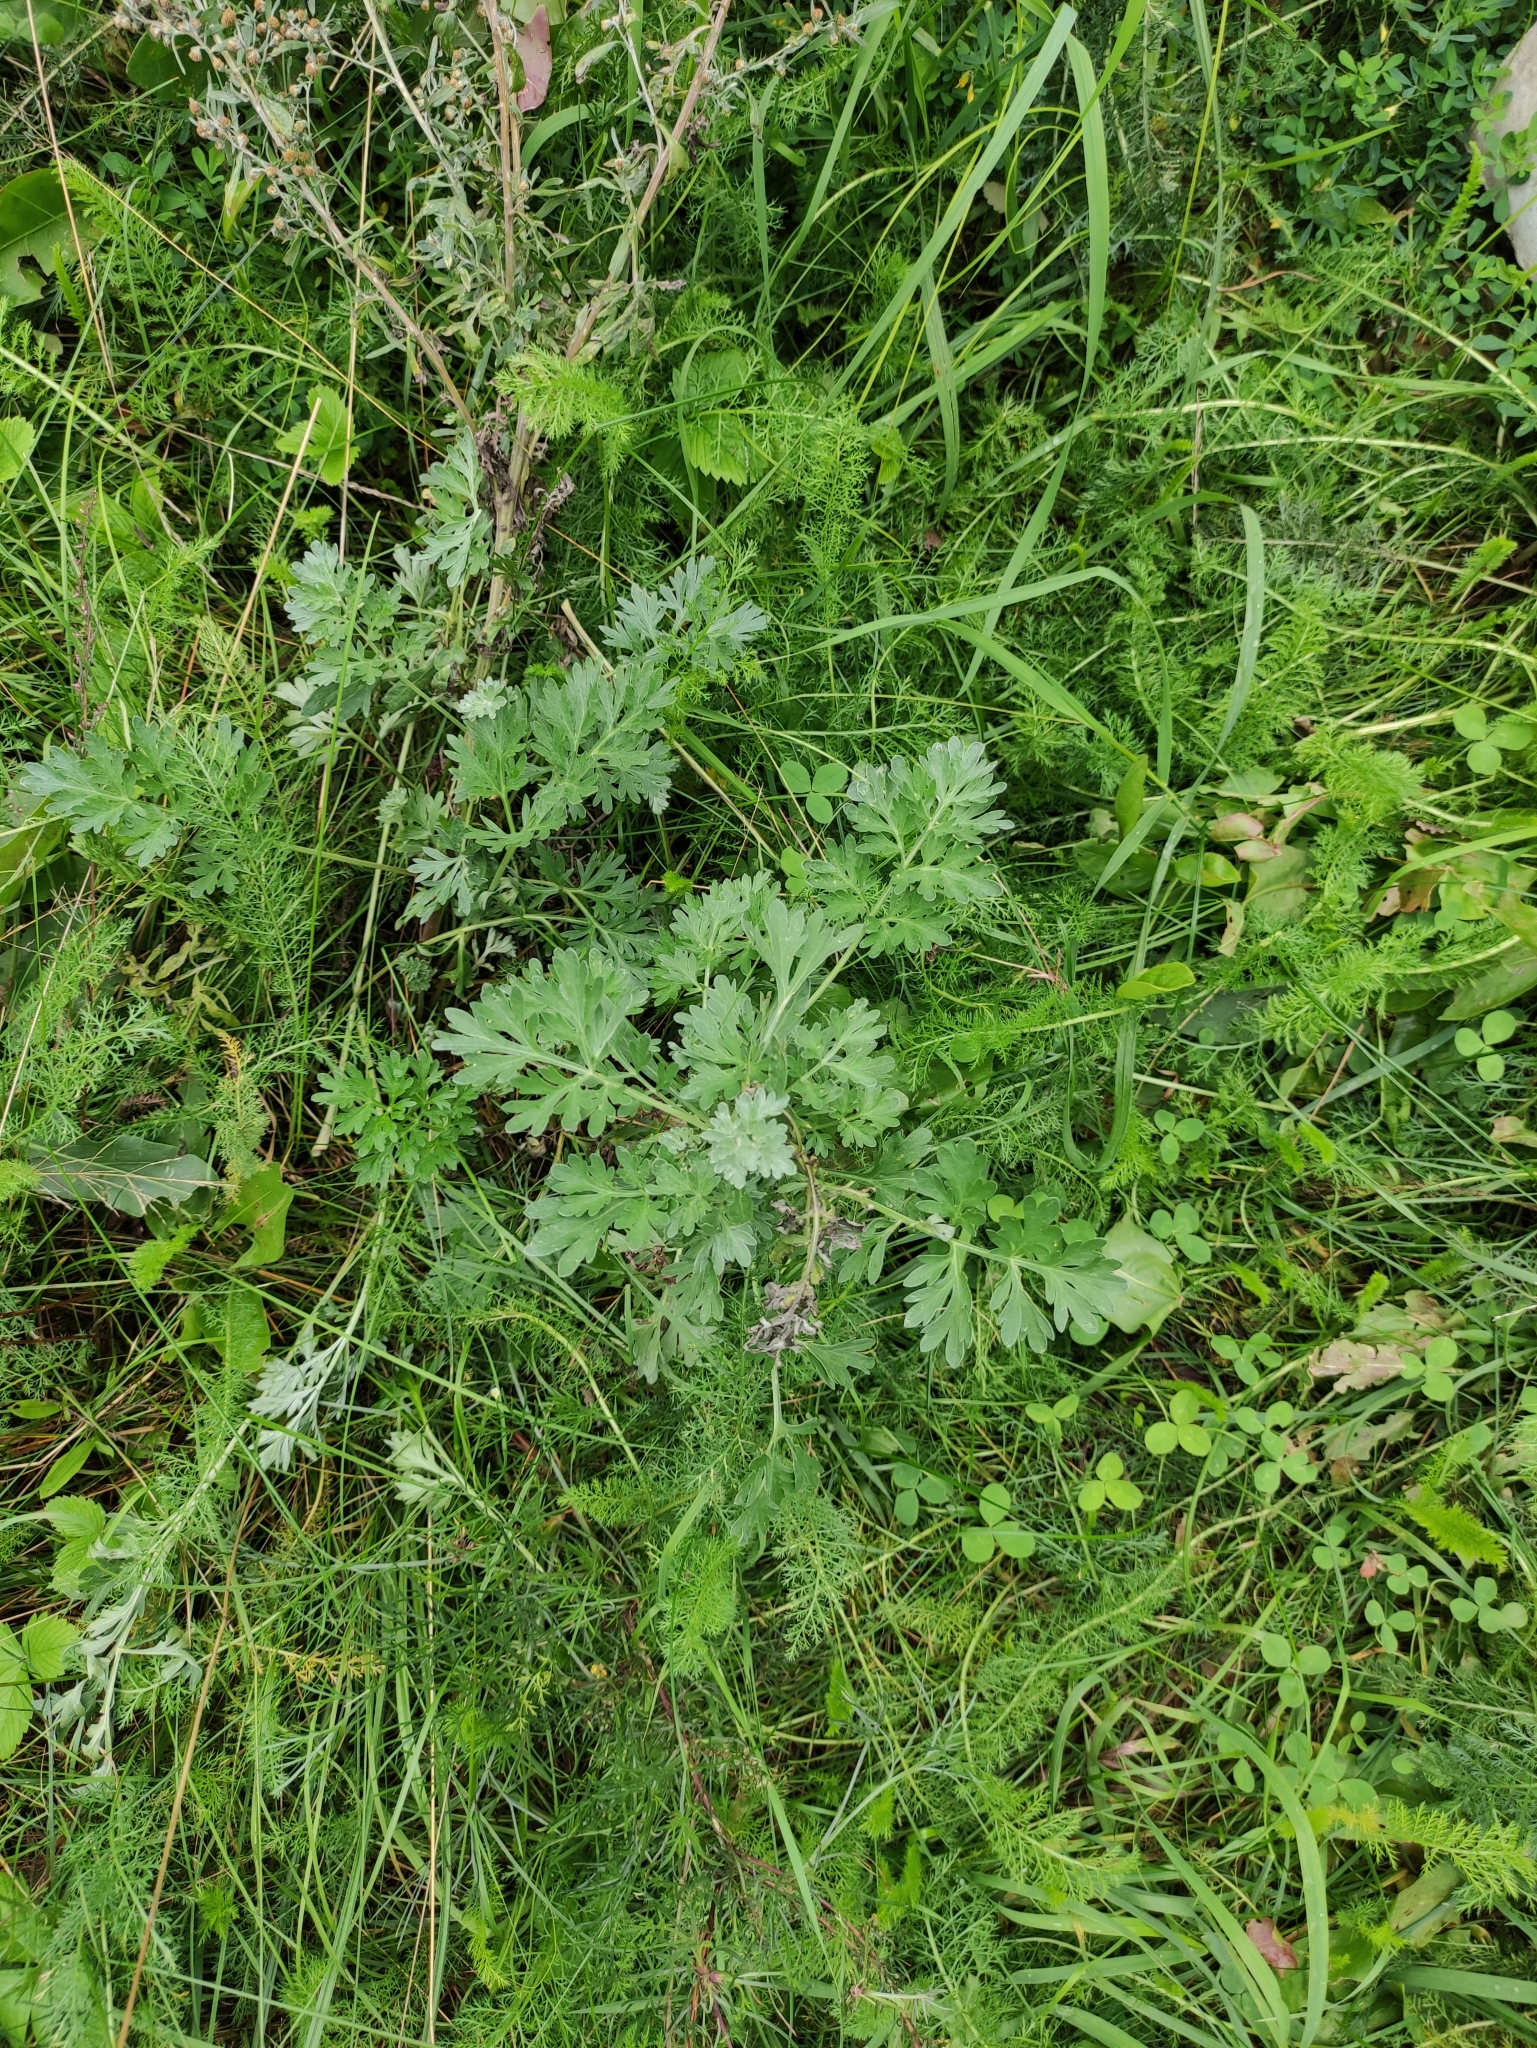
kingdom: Plantae
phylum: Tracheophyta
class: Magnoliopsida
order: Asterales
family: Asteraceae
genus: Artemisia
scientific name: Artemisia absinthium
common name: Wormwood
